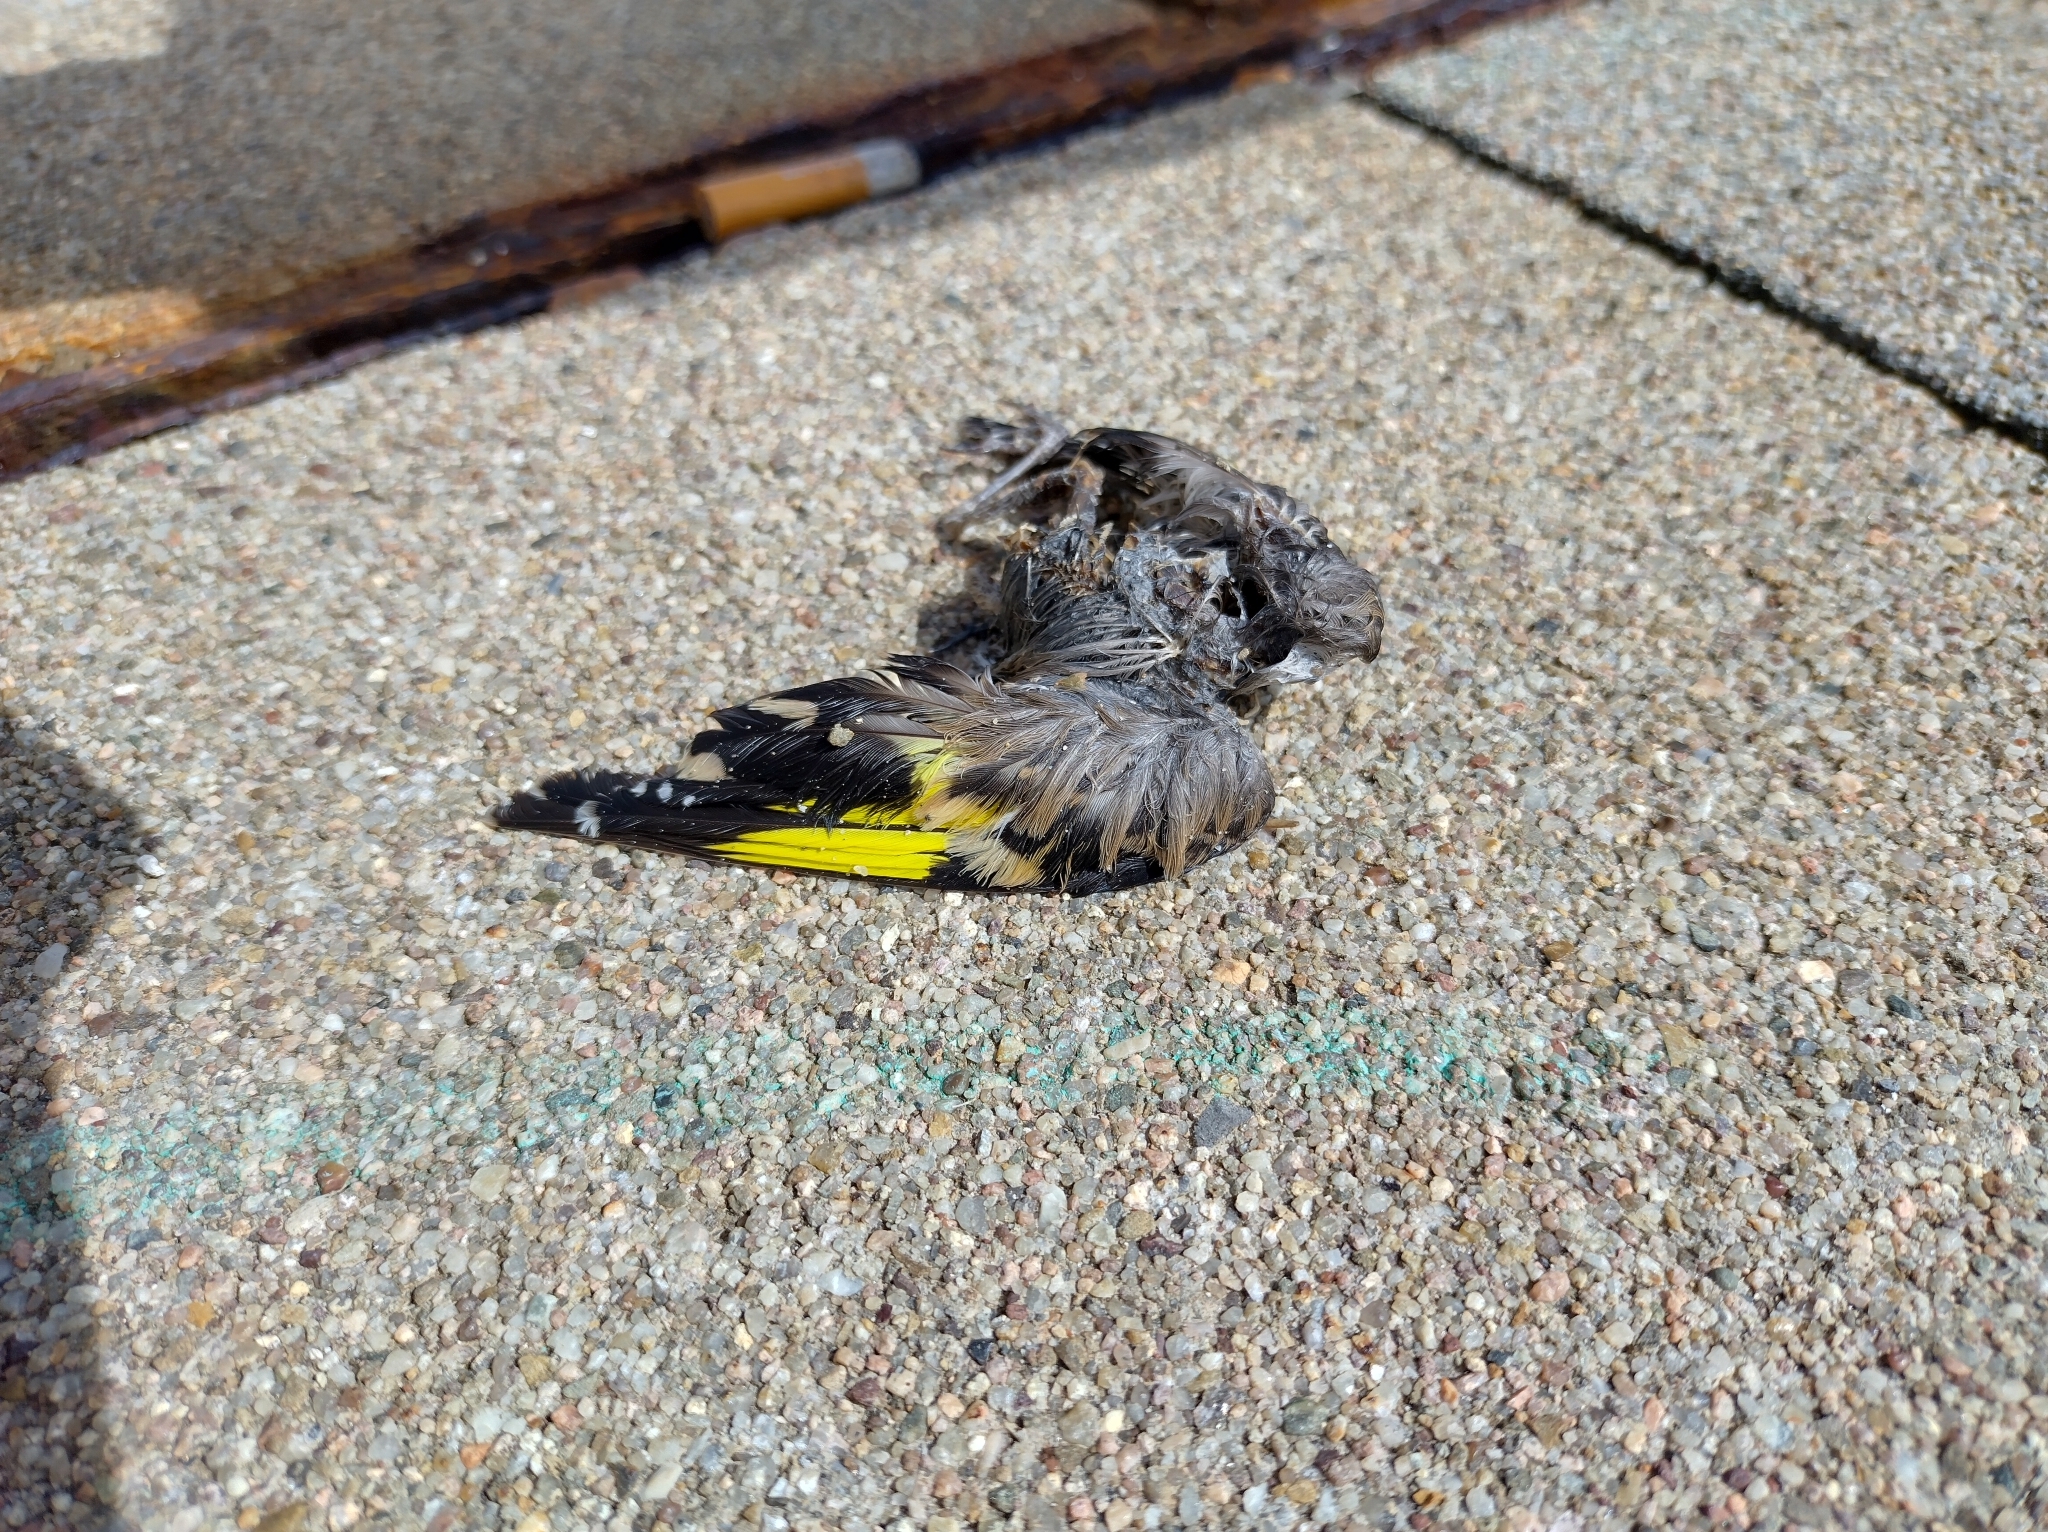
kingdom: Animalia
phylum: Chordata
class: Aves
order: Passeriformes
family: Fringillidae
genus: Carduelis
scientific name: Carduelis carduelis
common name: European goldfinch
